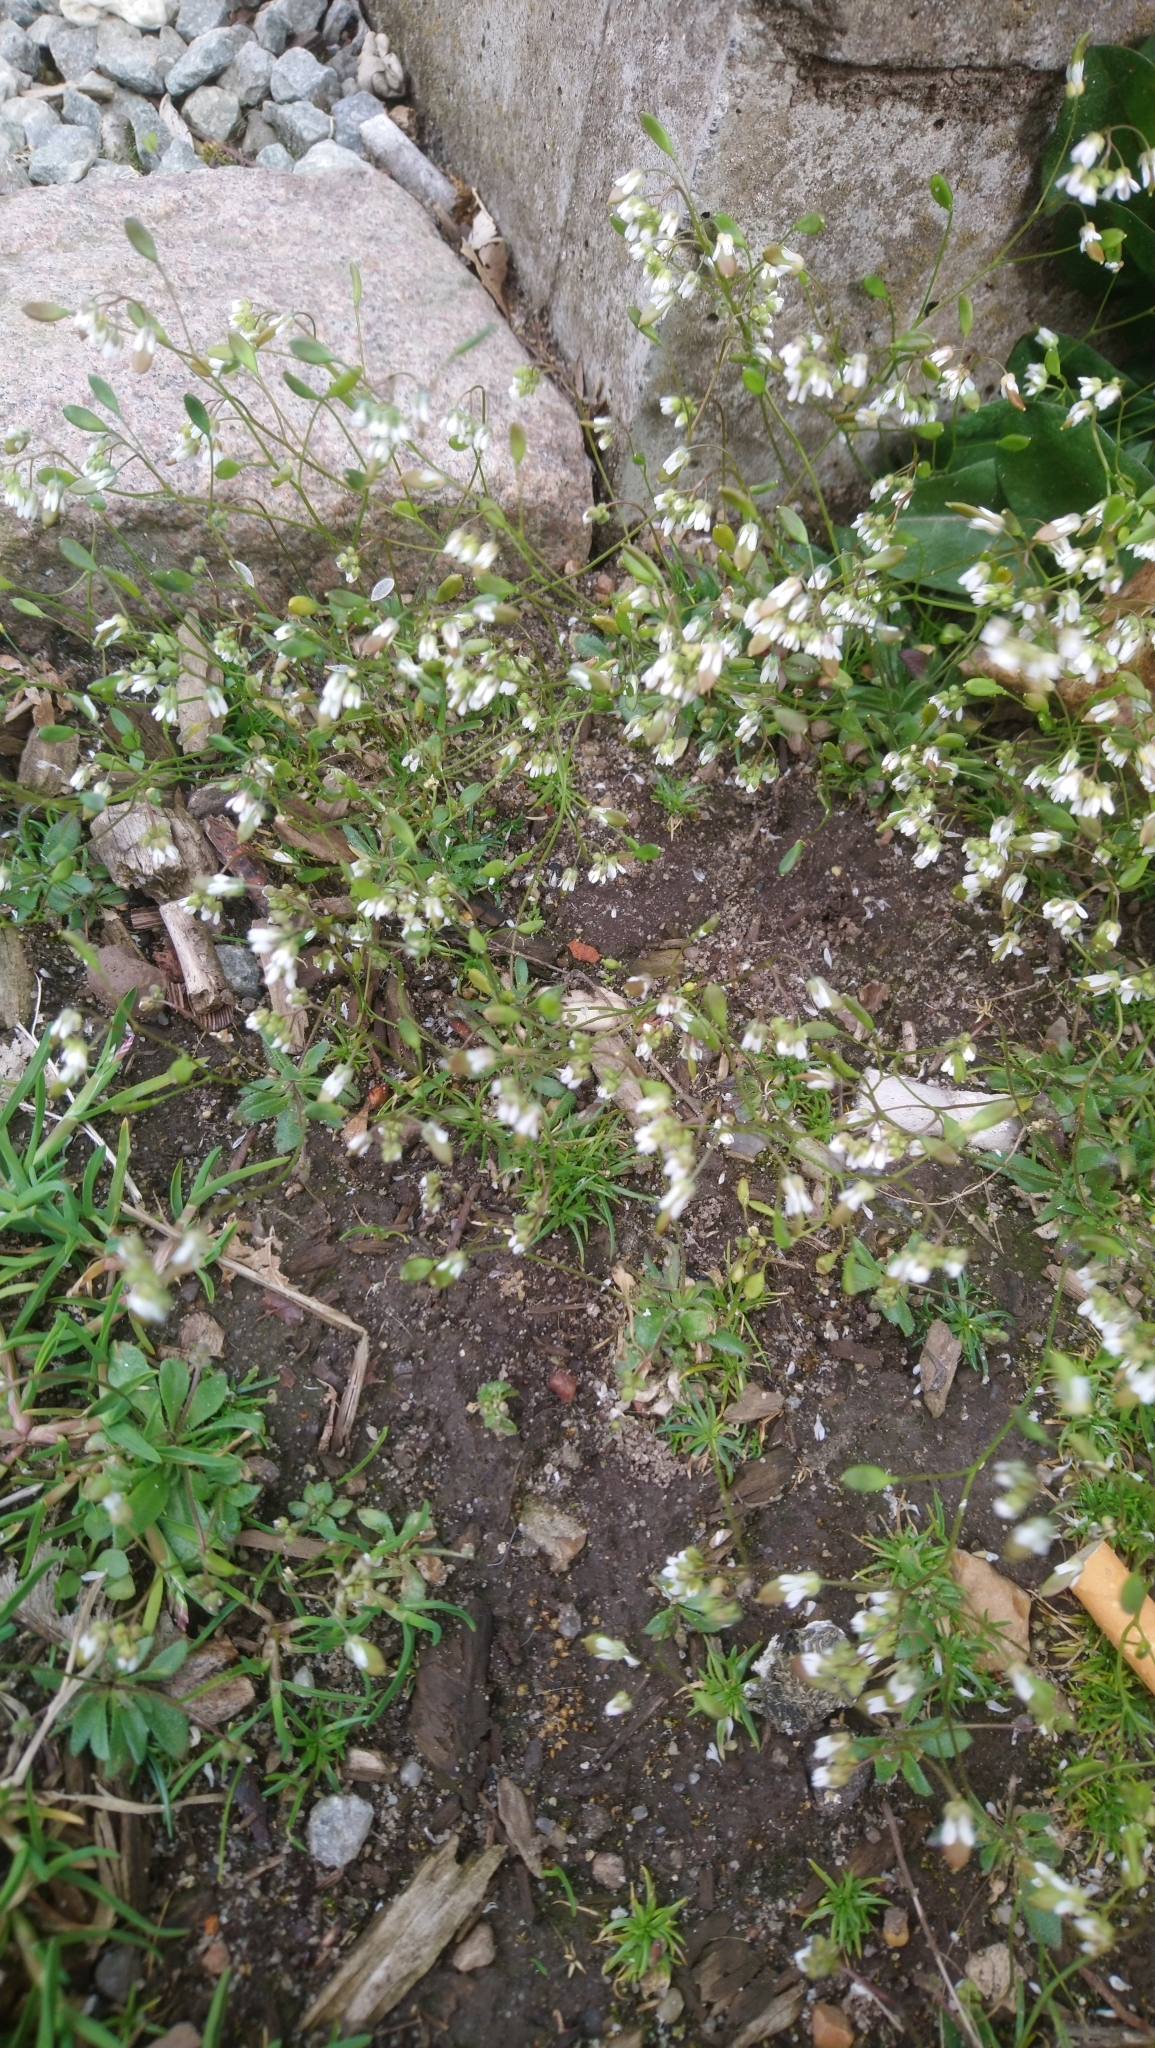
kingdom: Plantae
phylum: Tracheophyta
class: Magnoliopsida
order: Brassicales
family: Brassicaceae
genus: Draba
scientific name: Draba verna
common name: Spring draba
